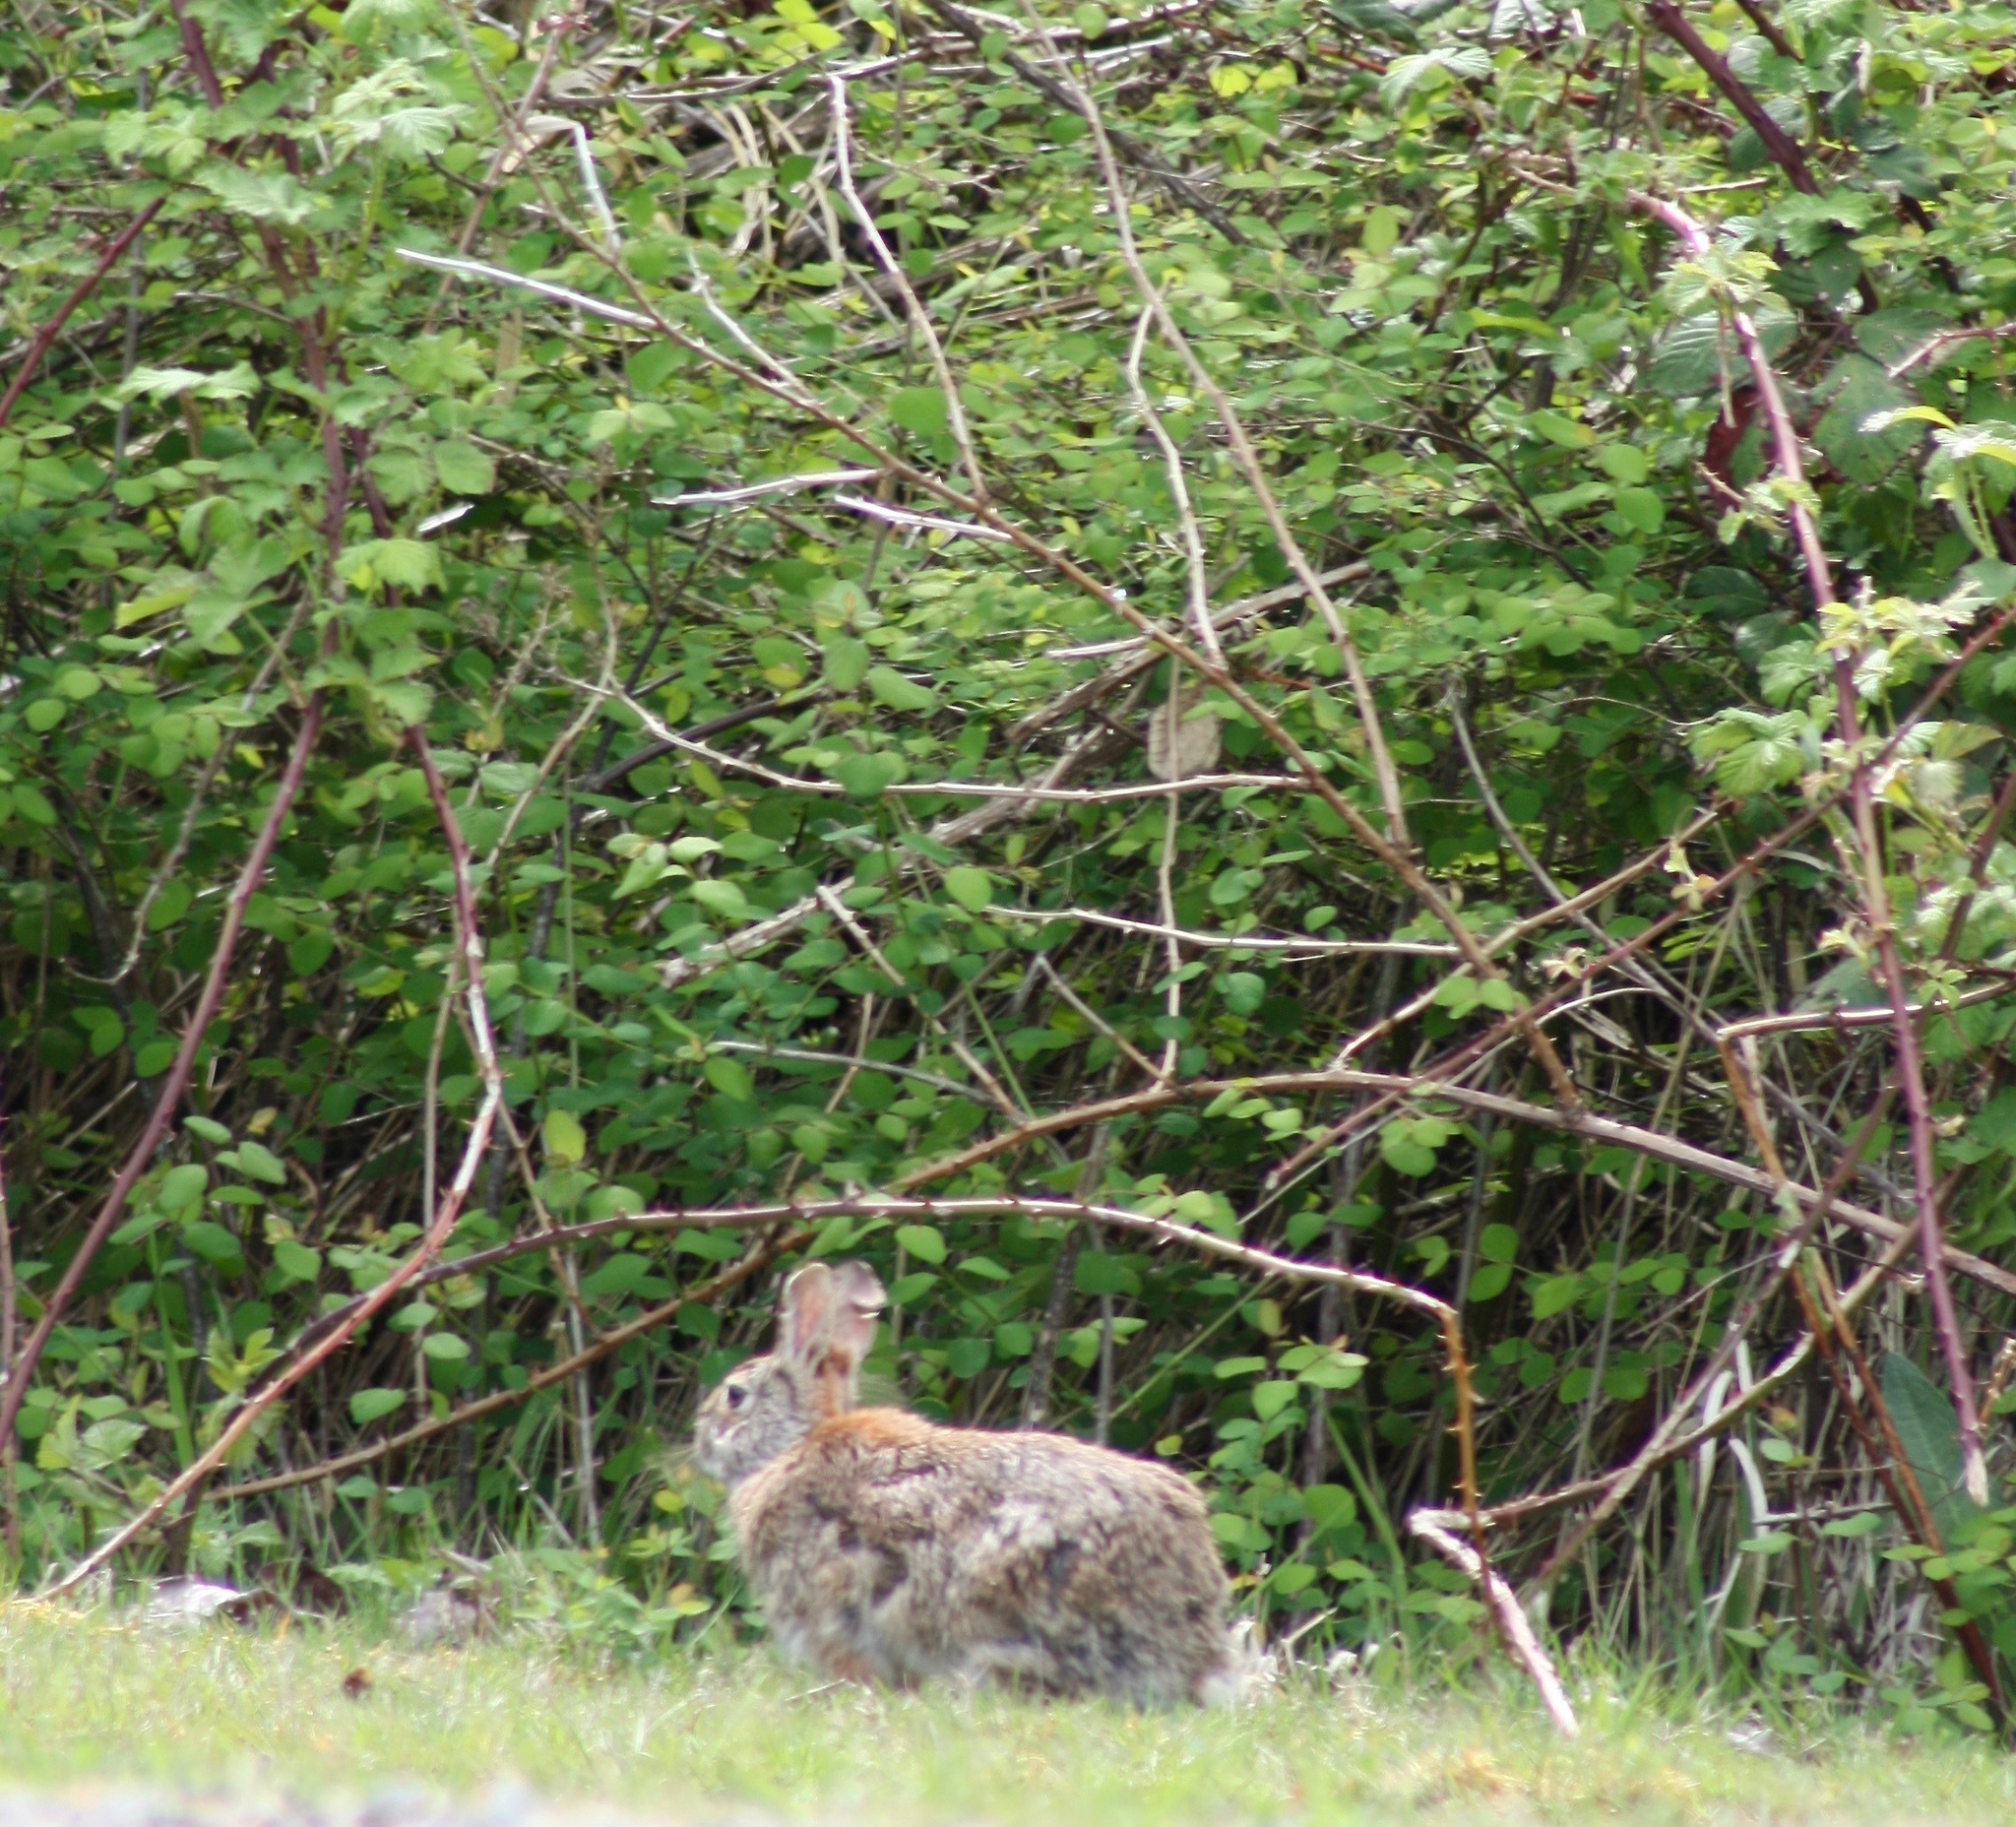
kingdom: Animalia
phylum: Chordata
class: Mammalia
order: Lagomorpha
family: Leporidae
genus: Sylvilagus
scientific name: Sylvilagus floridanus
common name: Eastern cottontail
